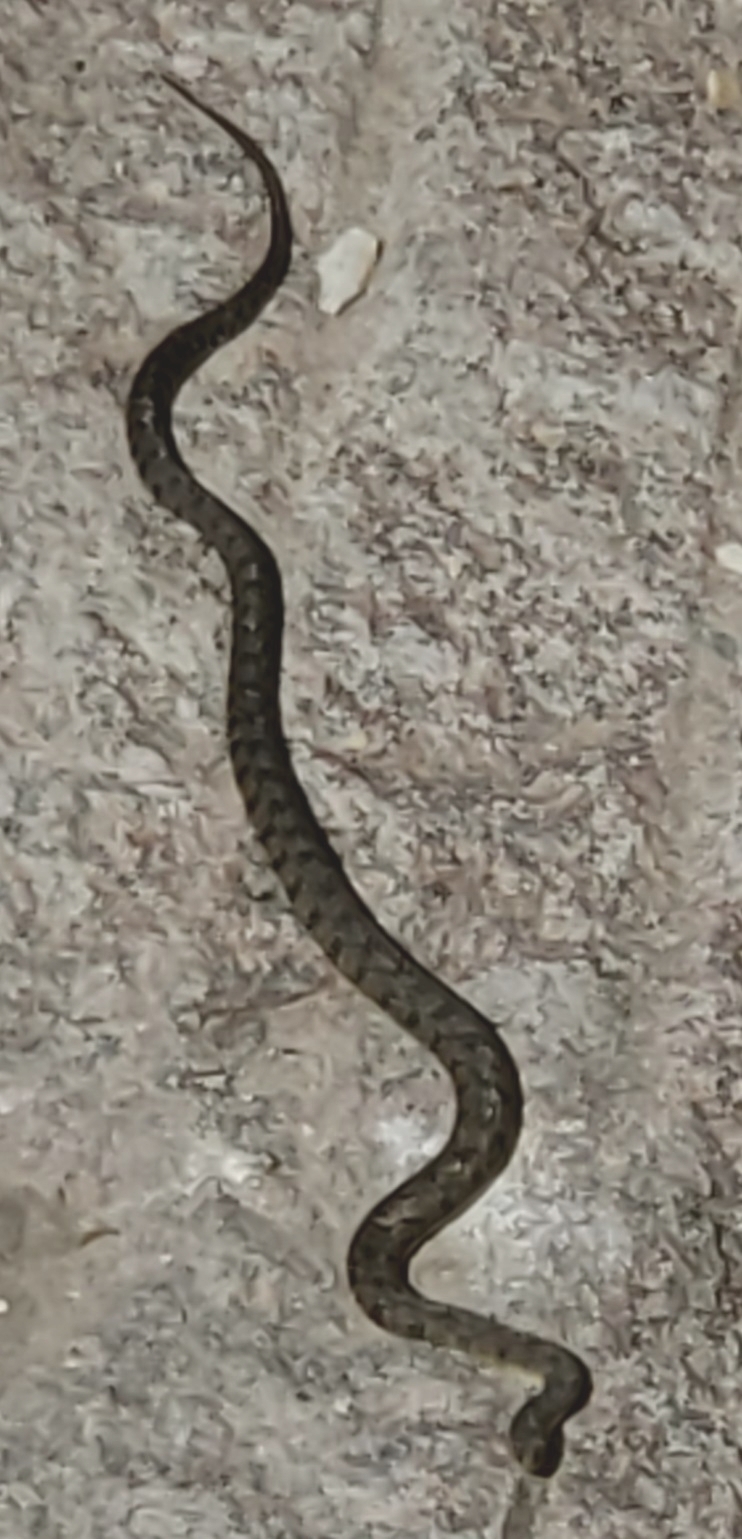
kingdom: Animalia
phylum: Chordata
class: Squamata
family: Colubridae
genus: Nerodia
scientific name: Nerodia rhombifer
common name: Diamondback water snake
